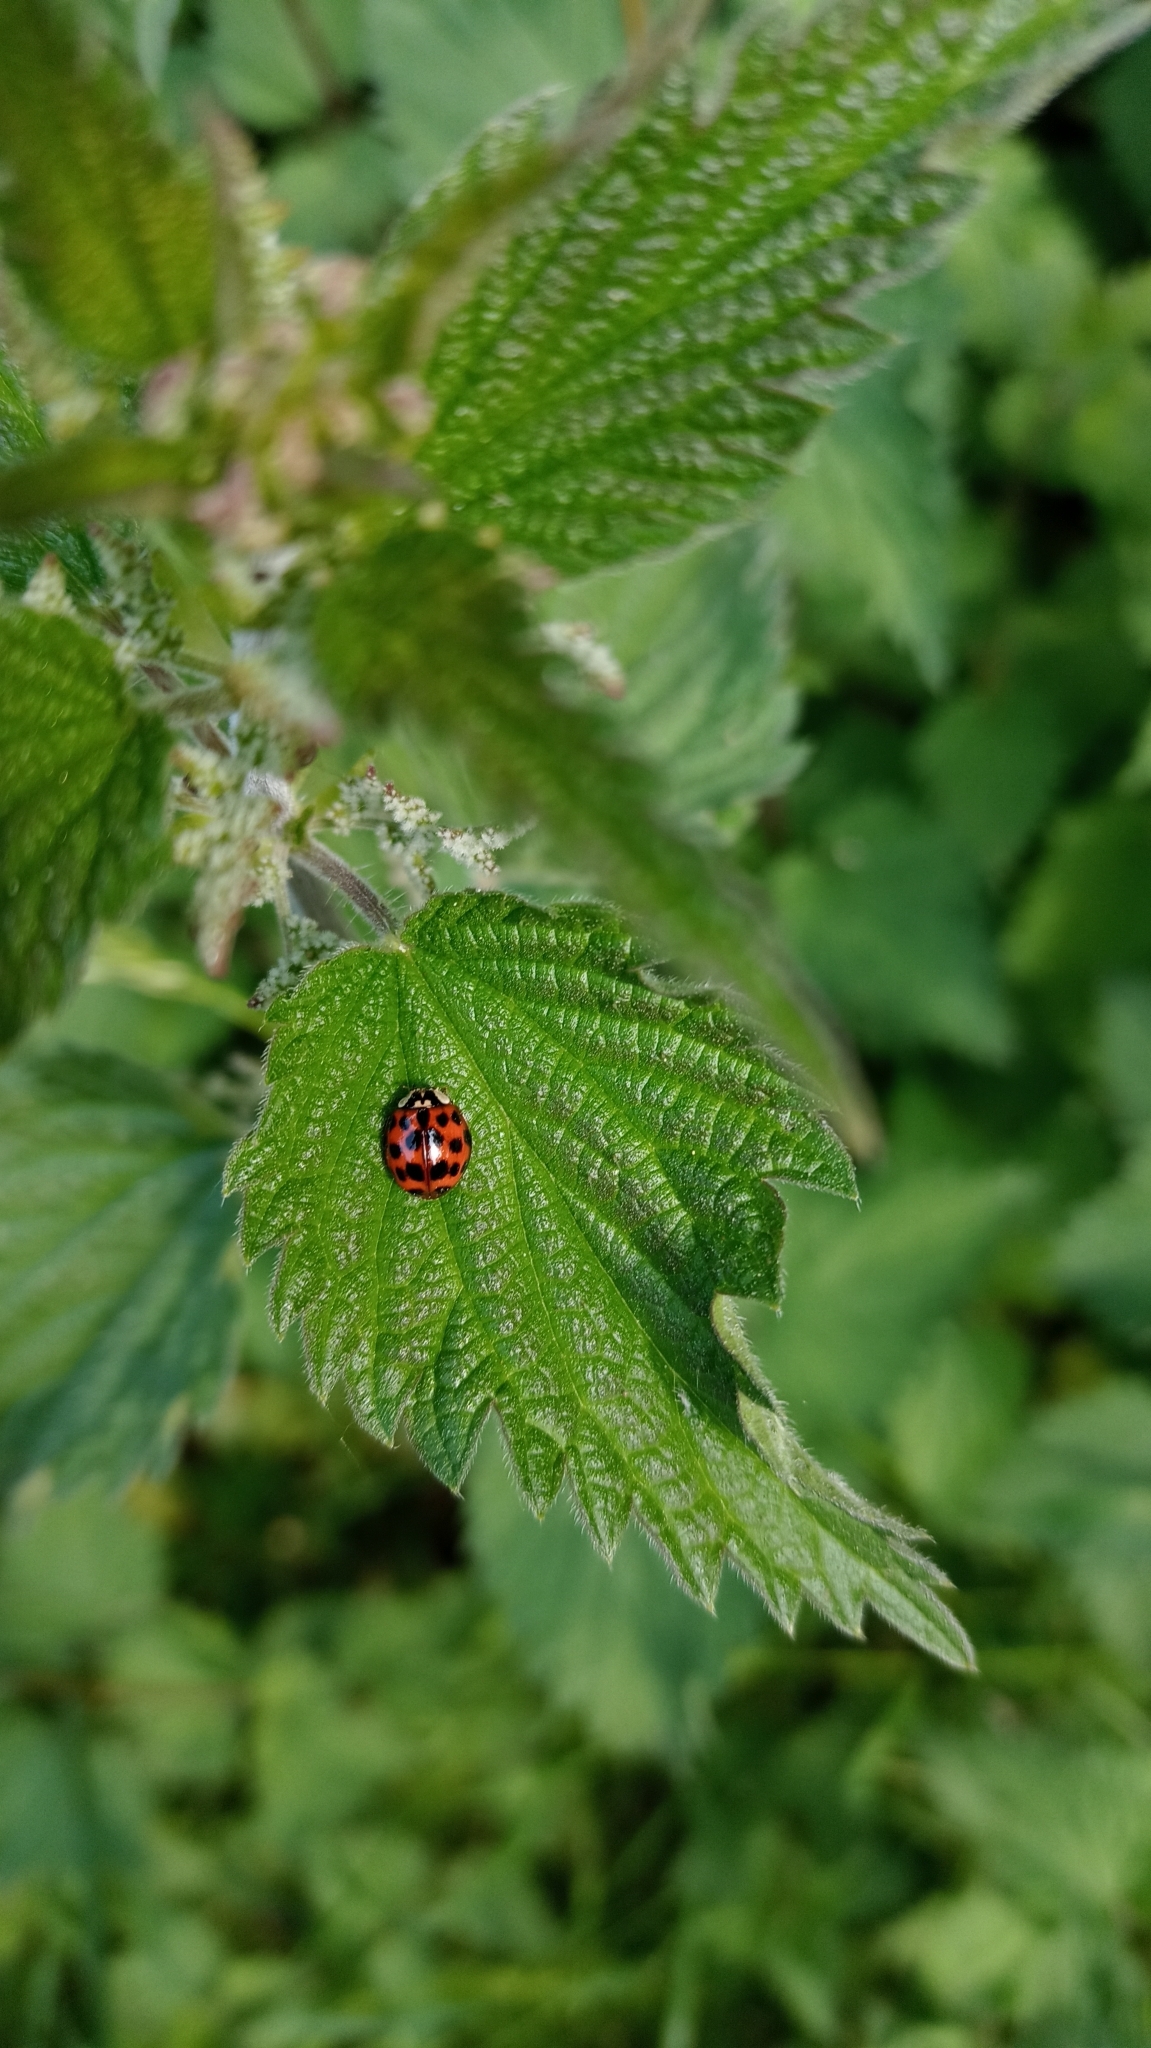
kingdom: Animalia
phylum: Arthropoda
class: Insecta
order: Coleoptera
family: Coccinellidae
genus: Harmonia
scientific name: Harmonia axyridis
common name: Harlequin ladybird
